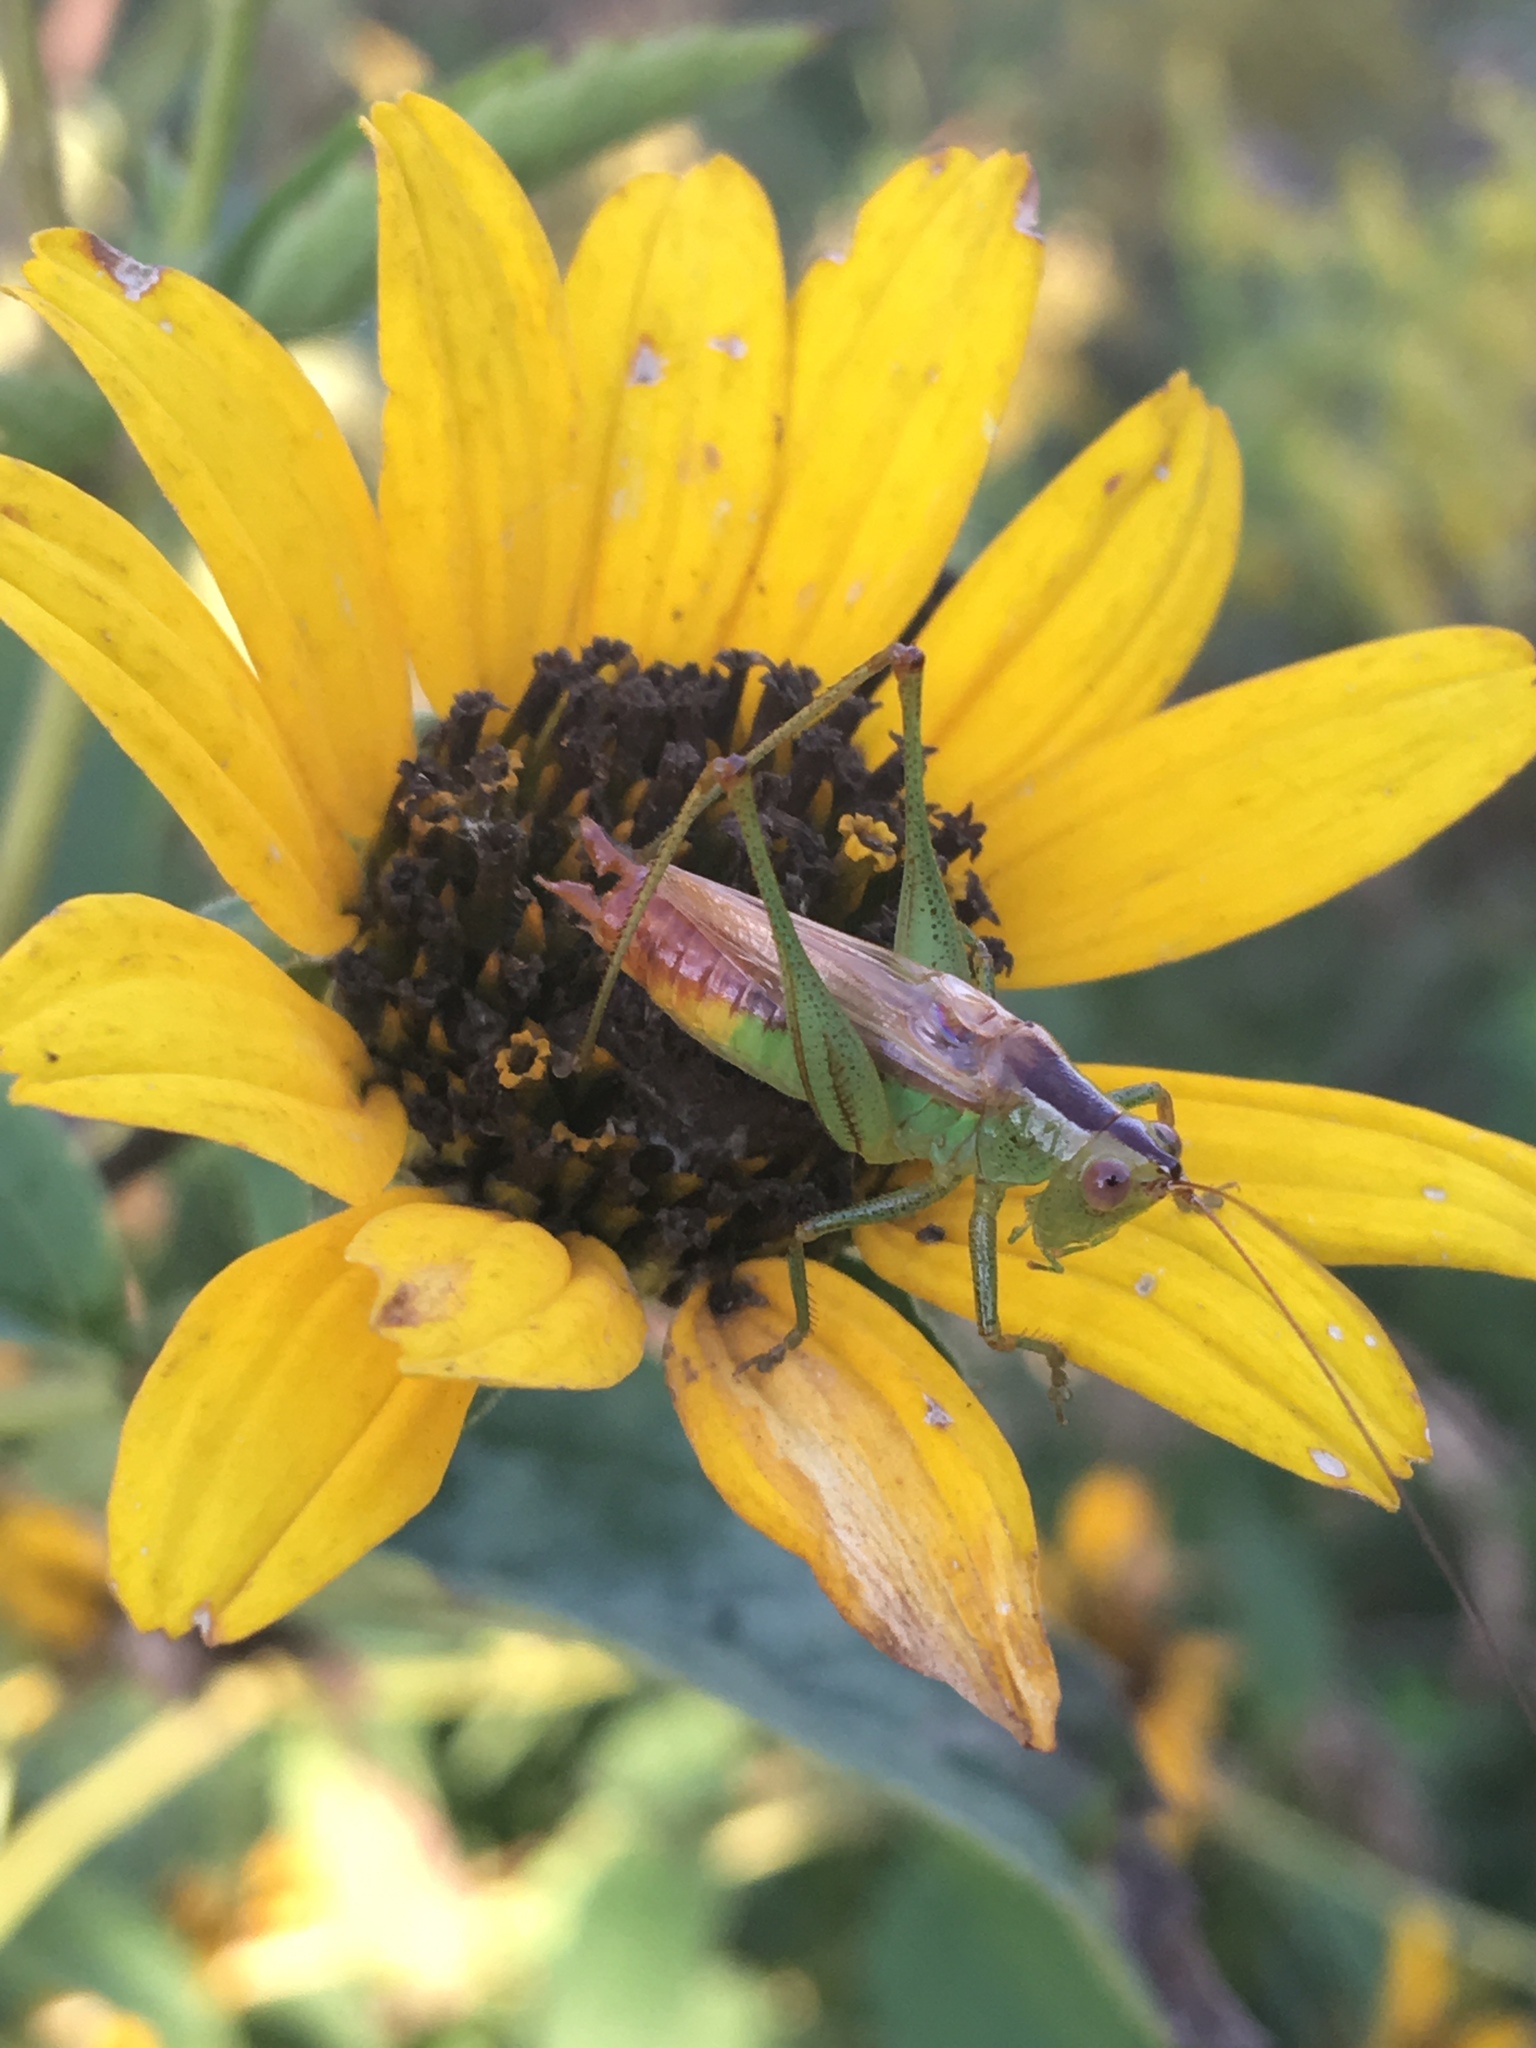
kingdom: Animalia
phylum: Arthropoda
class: Insecta
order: Orthoptera
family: Tettigoniidae
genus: Conocephalus
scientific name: Conocephalus brevipennis
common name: Short-winged meadow katydid
